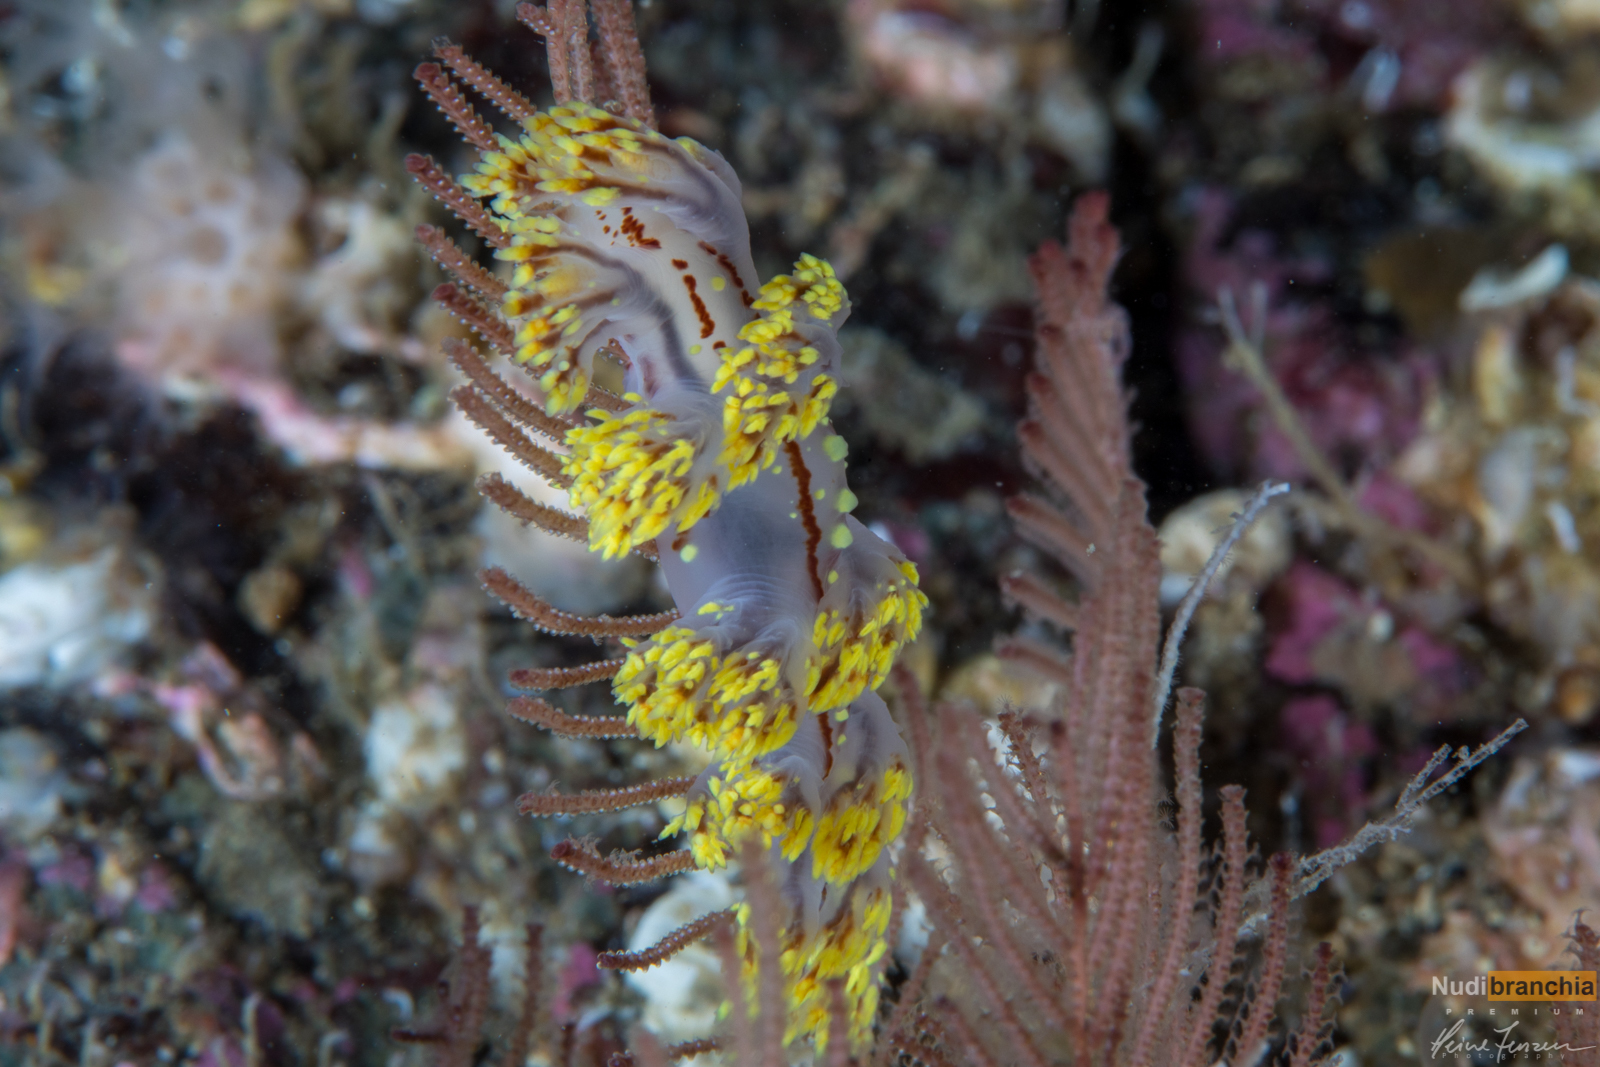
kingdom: Animalia
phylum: Mollusca
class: Gastropoda
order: Nudibranchia
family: Dendronotidae
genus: Dendronotus
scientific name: Dendronotus yrjargul
